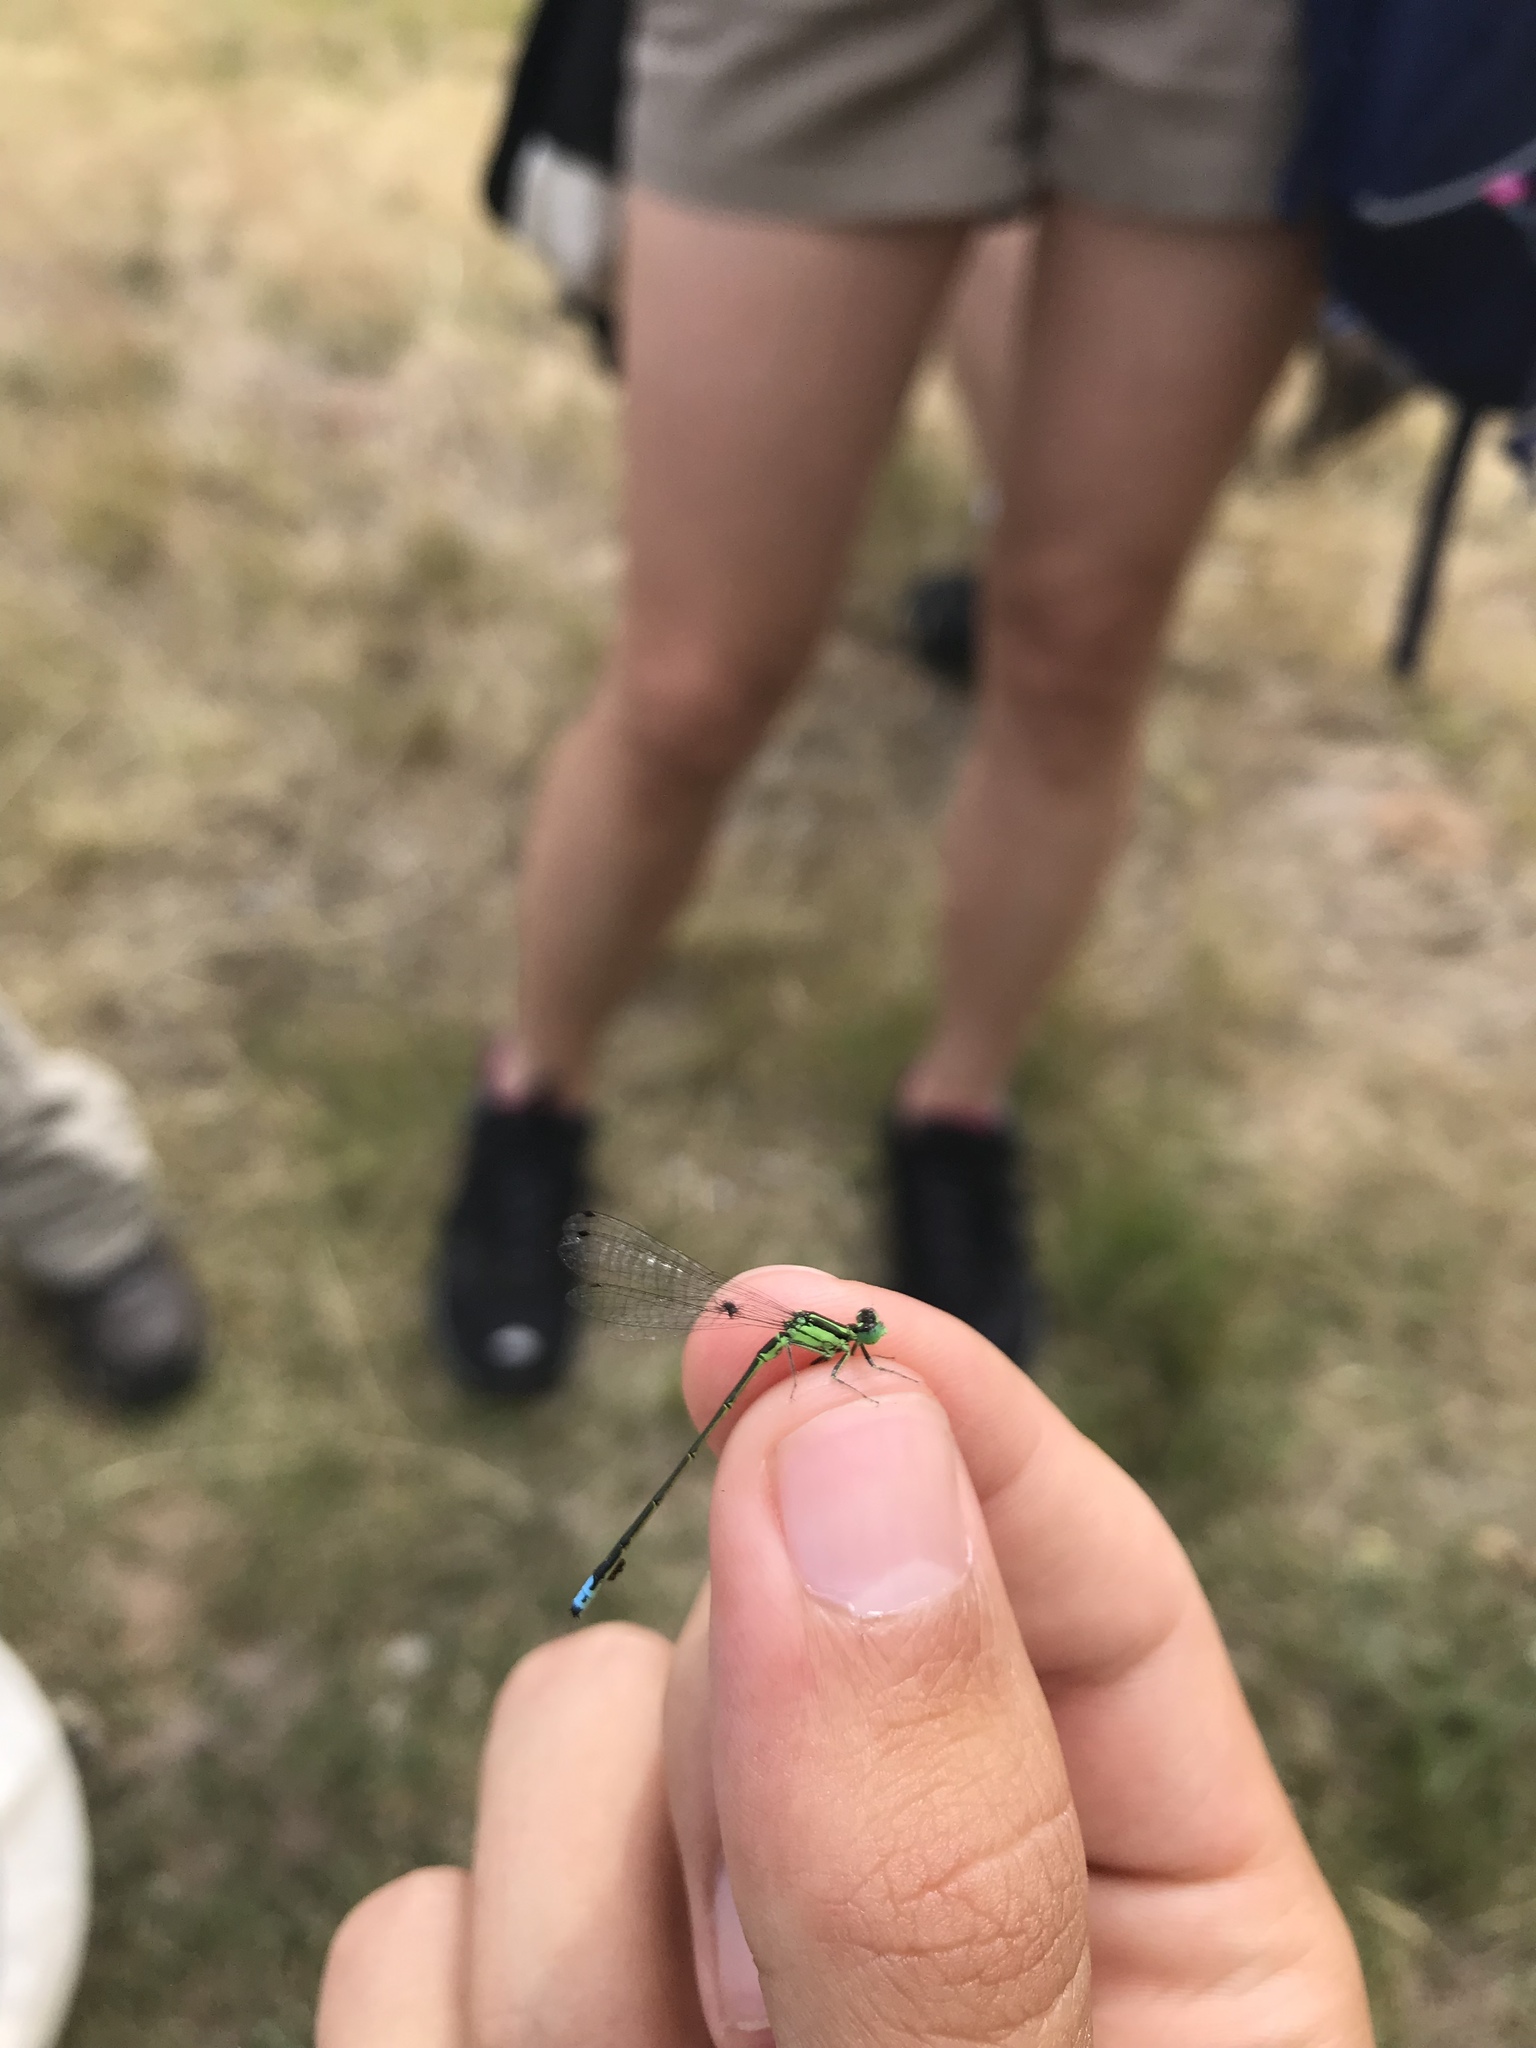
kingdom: Animalia
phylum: Arthropoda
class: Insecta
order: Odonata
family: Coenagrionidae
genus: Ischnura
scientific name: Ischnura verticalis
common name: Eastern forktail
